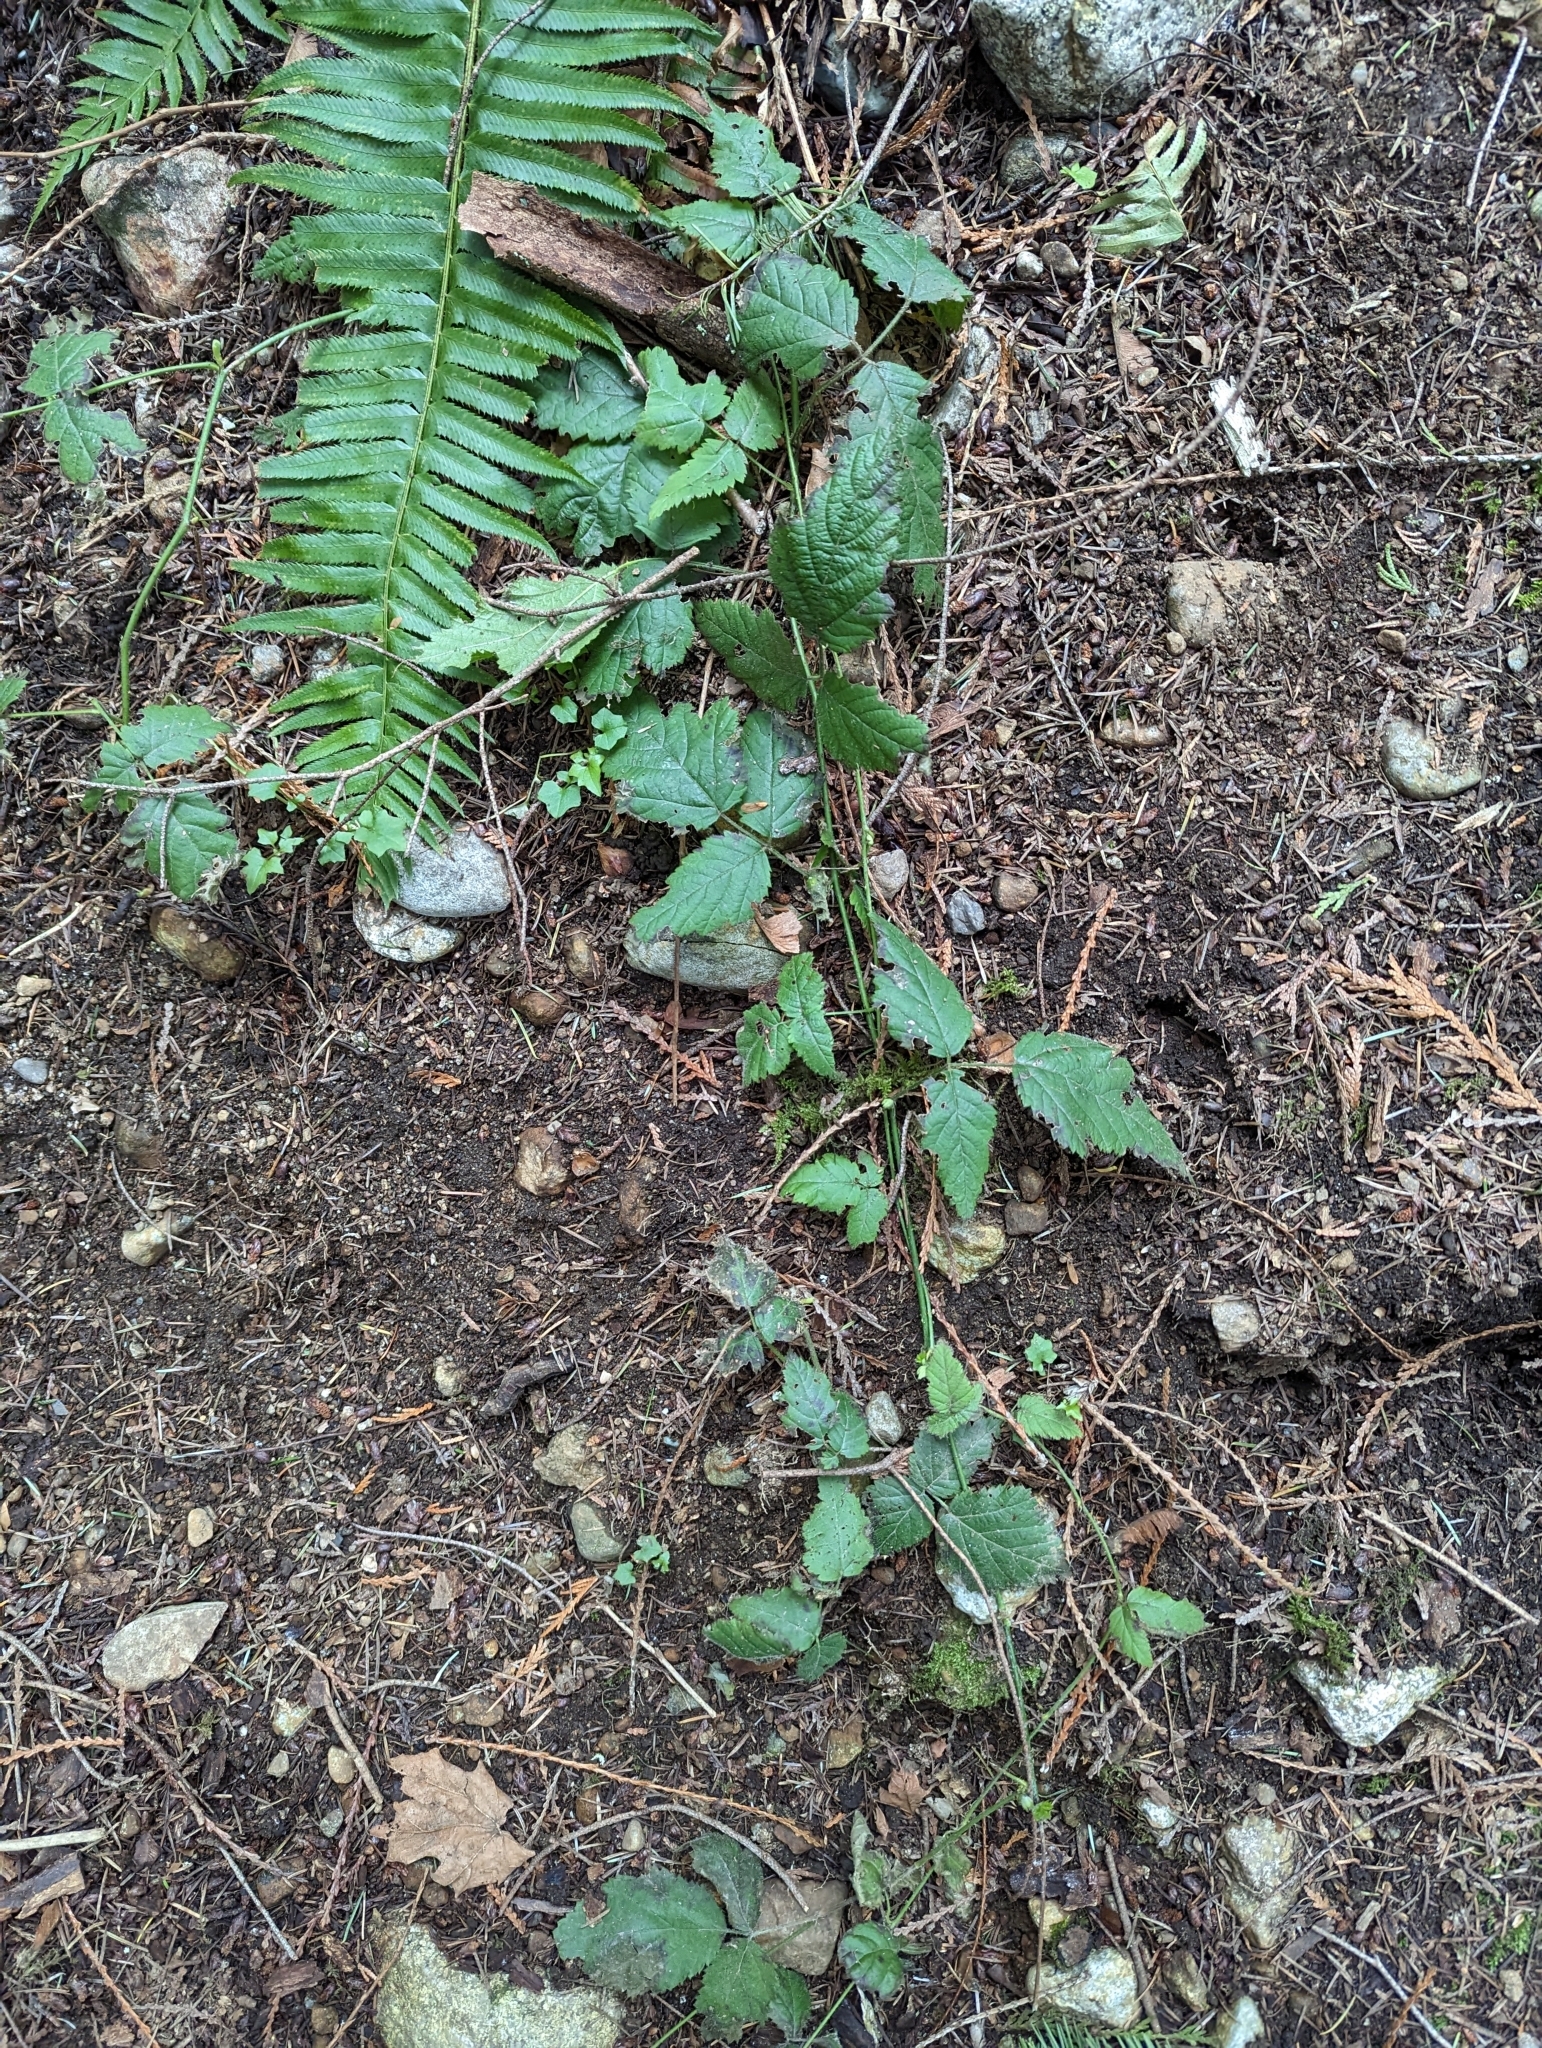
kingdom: Plantae
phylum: Tracheophyta
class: Magnoliopsida
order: Rosales
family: Rosaceae
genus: Rubus
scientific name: Rubus ursinus
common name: Pacific blackberry
